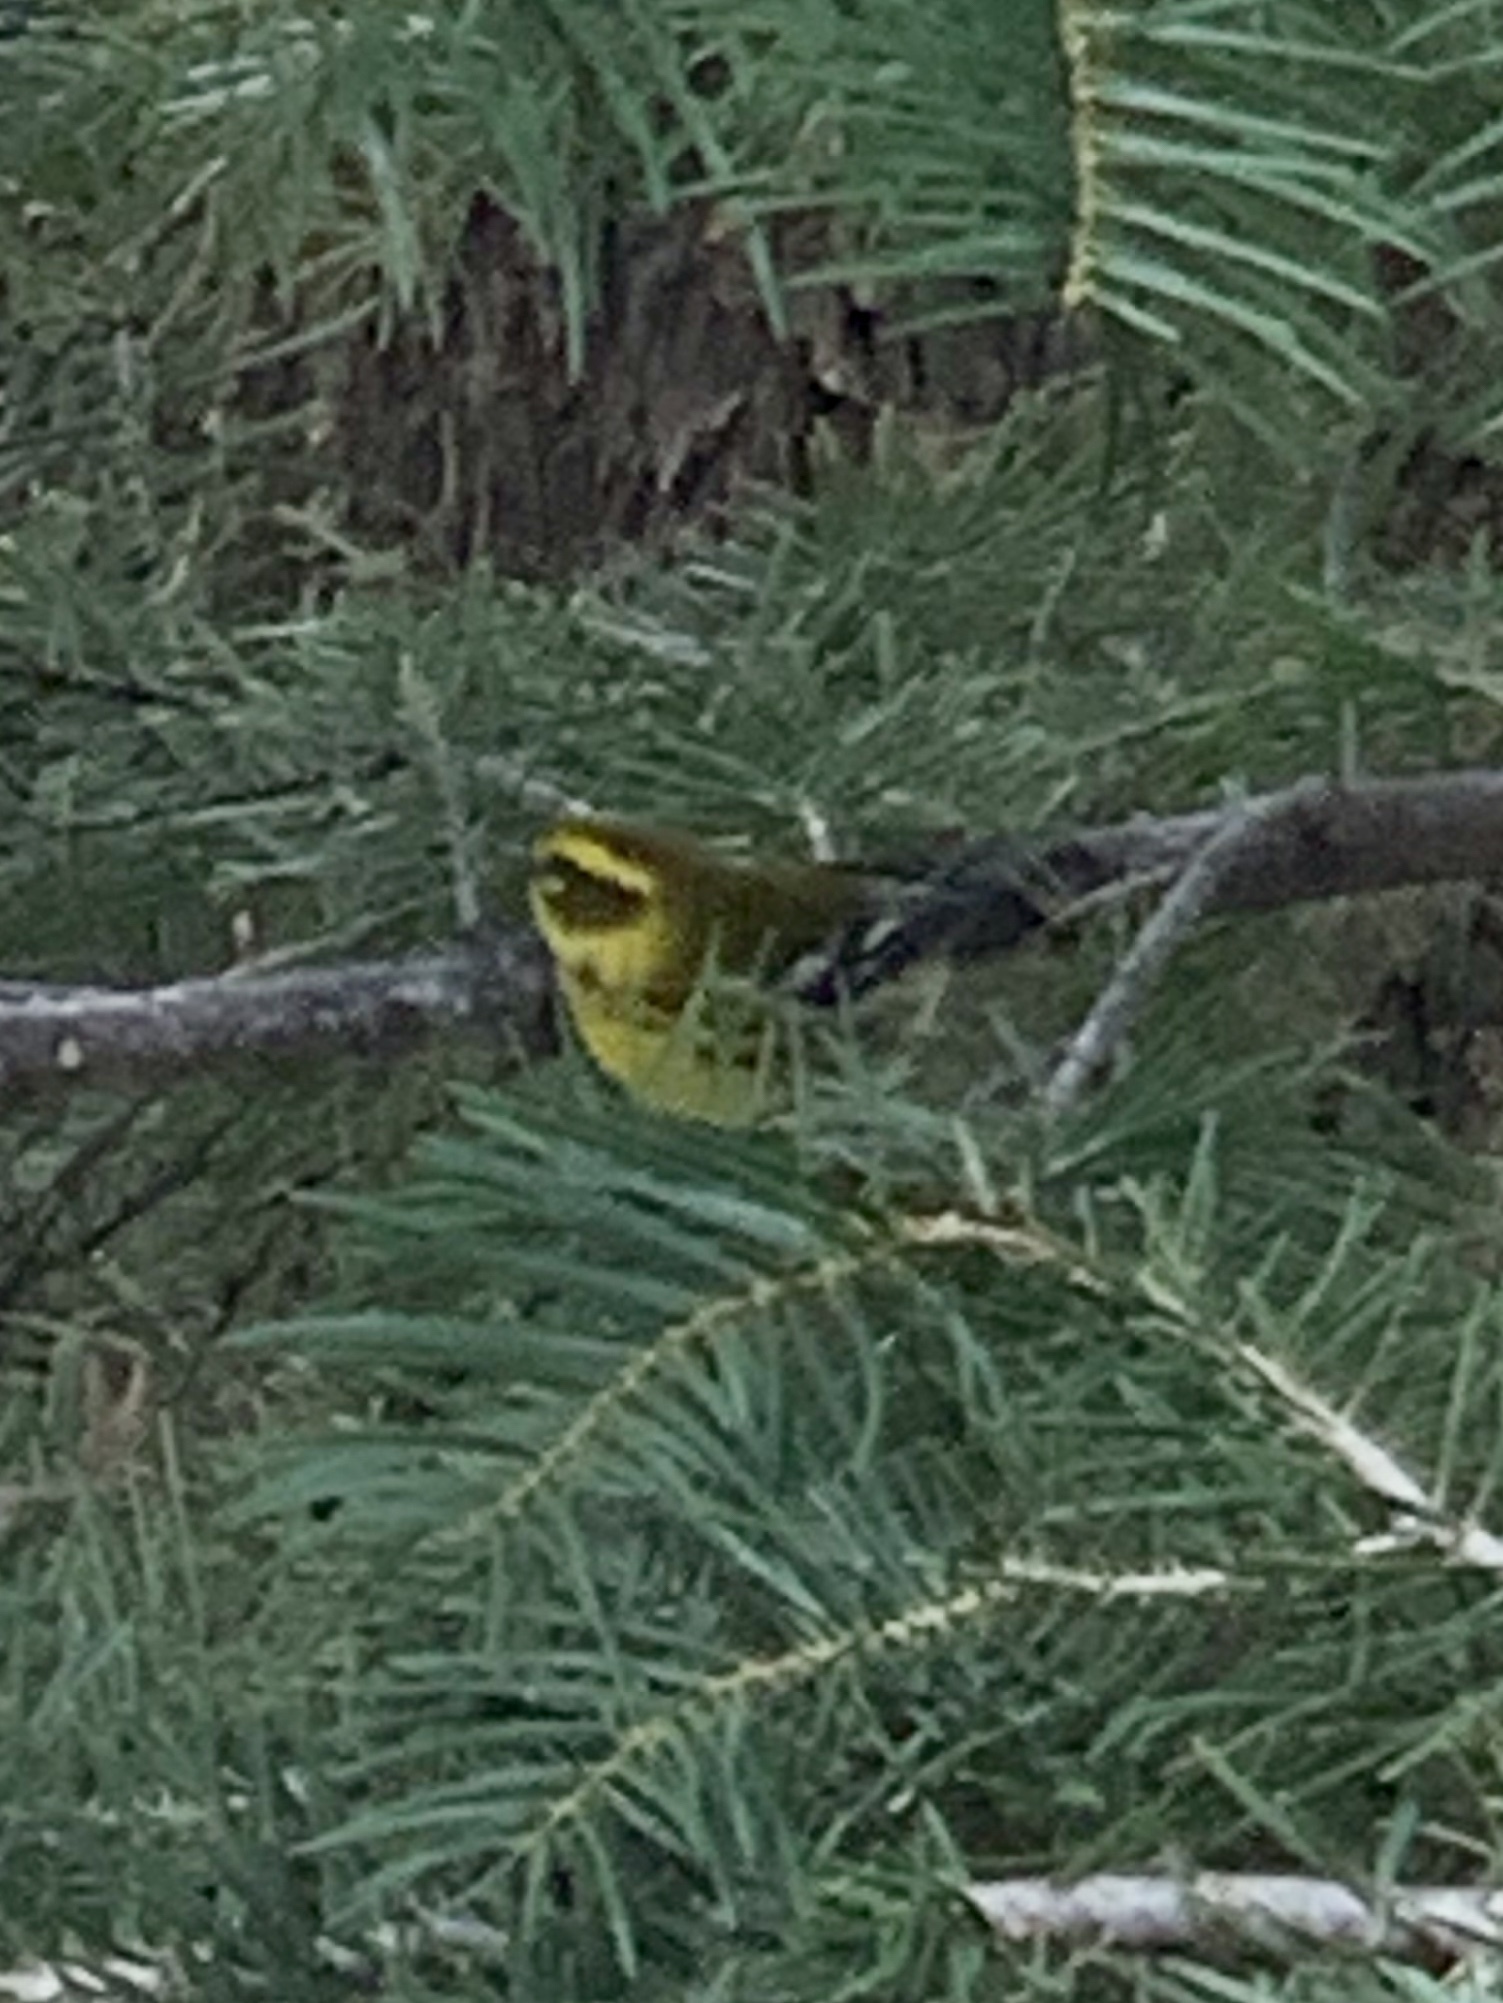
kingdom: Animalia
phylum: Chordata
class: Aves
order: Passeriformes
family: Parulidae
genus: Setophaga
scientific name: Setophaga townsendi
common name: Townsend's warbler
